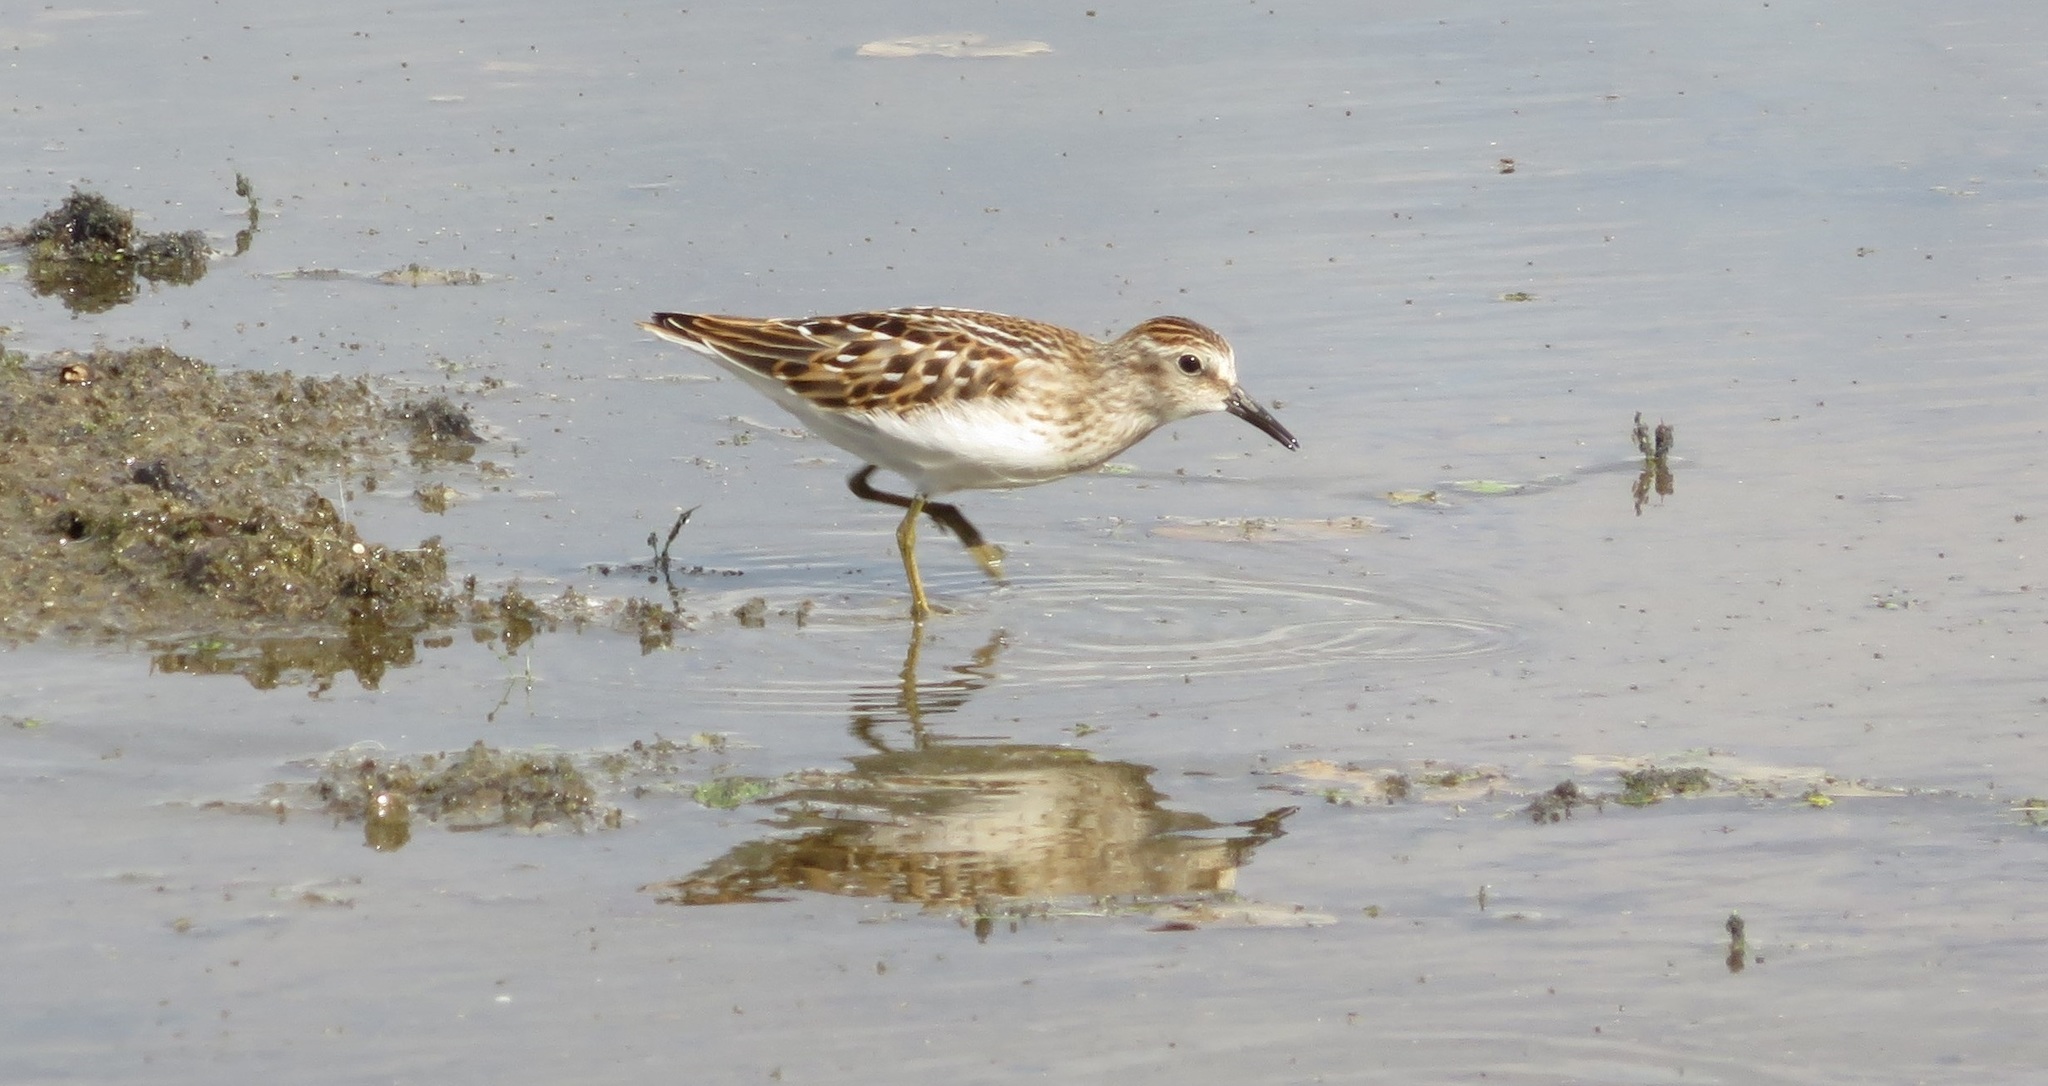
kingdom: Animalia
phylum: Chordata
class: Aves
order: Charadriiformes
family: Scolopacidae
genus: Calidris
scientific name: Calidris minutilla
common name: Least sandpiper
